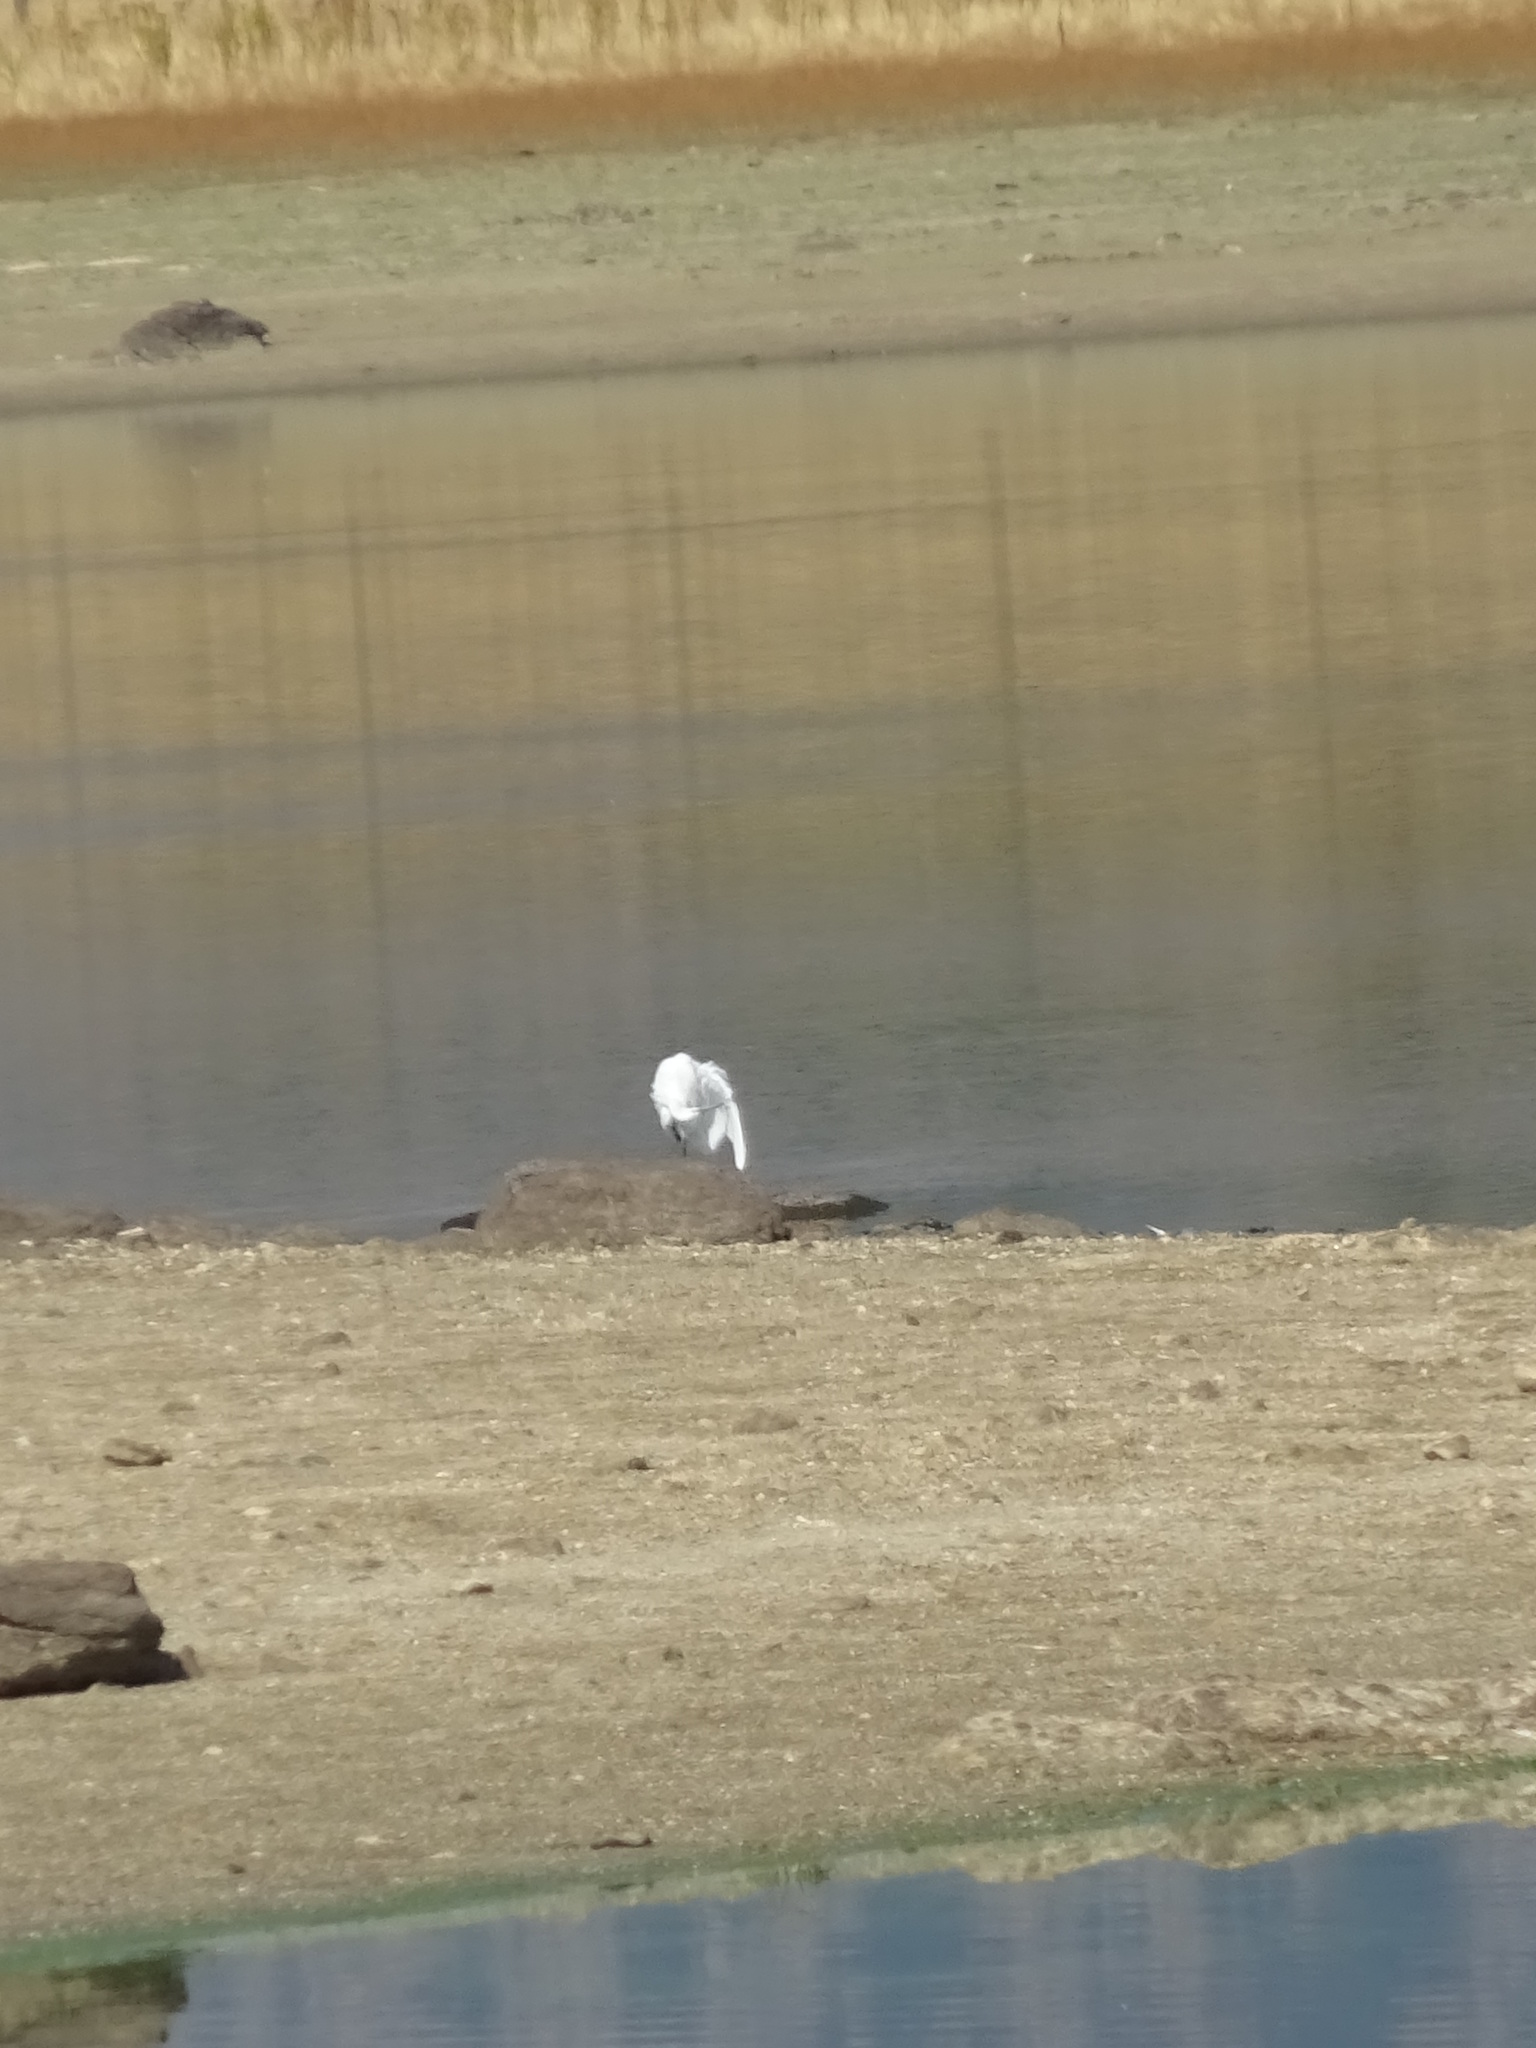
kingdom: Animalia
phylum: Chordata
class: Aves
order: Pelecaniformes
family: Ardeidae
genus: Egretta
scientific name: Egretta garzetta
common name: Little egret
